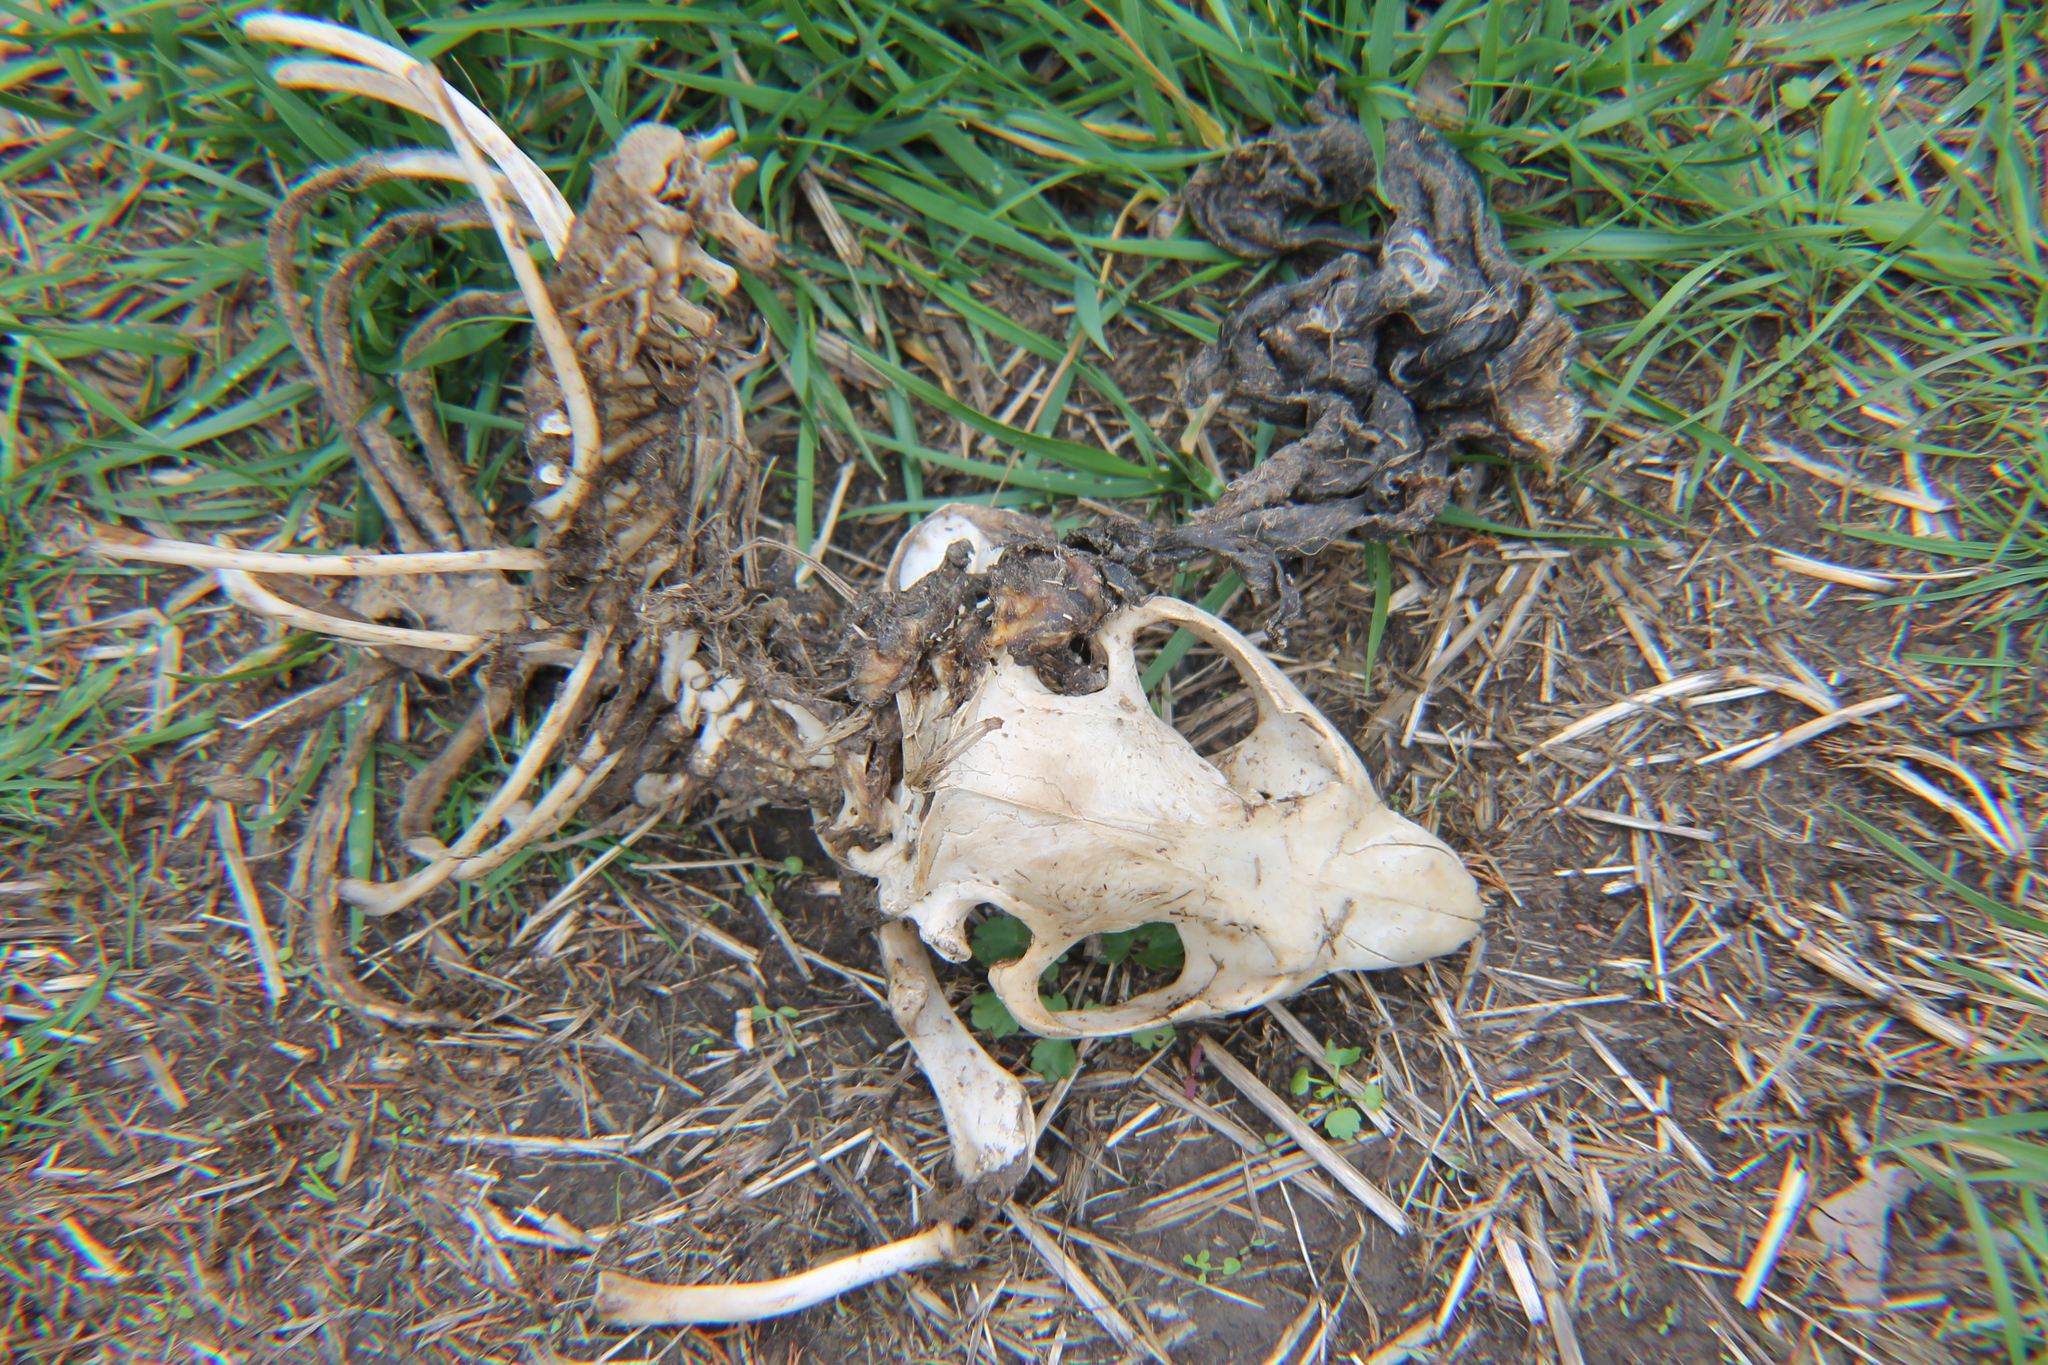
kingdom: Animalia
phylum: Chordata
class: Mammalia
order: Rodentia
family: Castoridae
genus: Castor
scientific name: Castor canadensis
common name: American beaver
